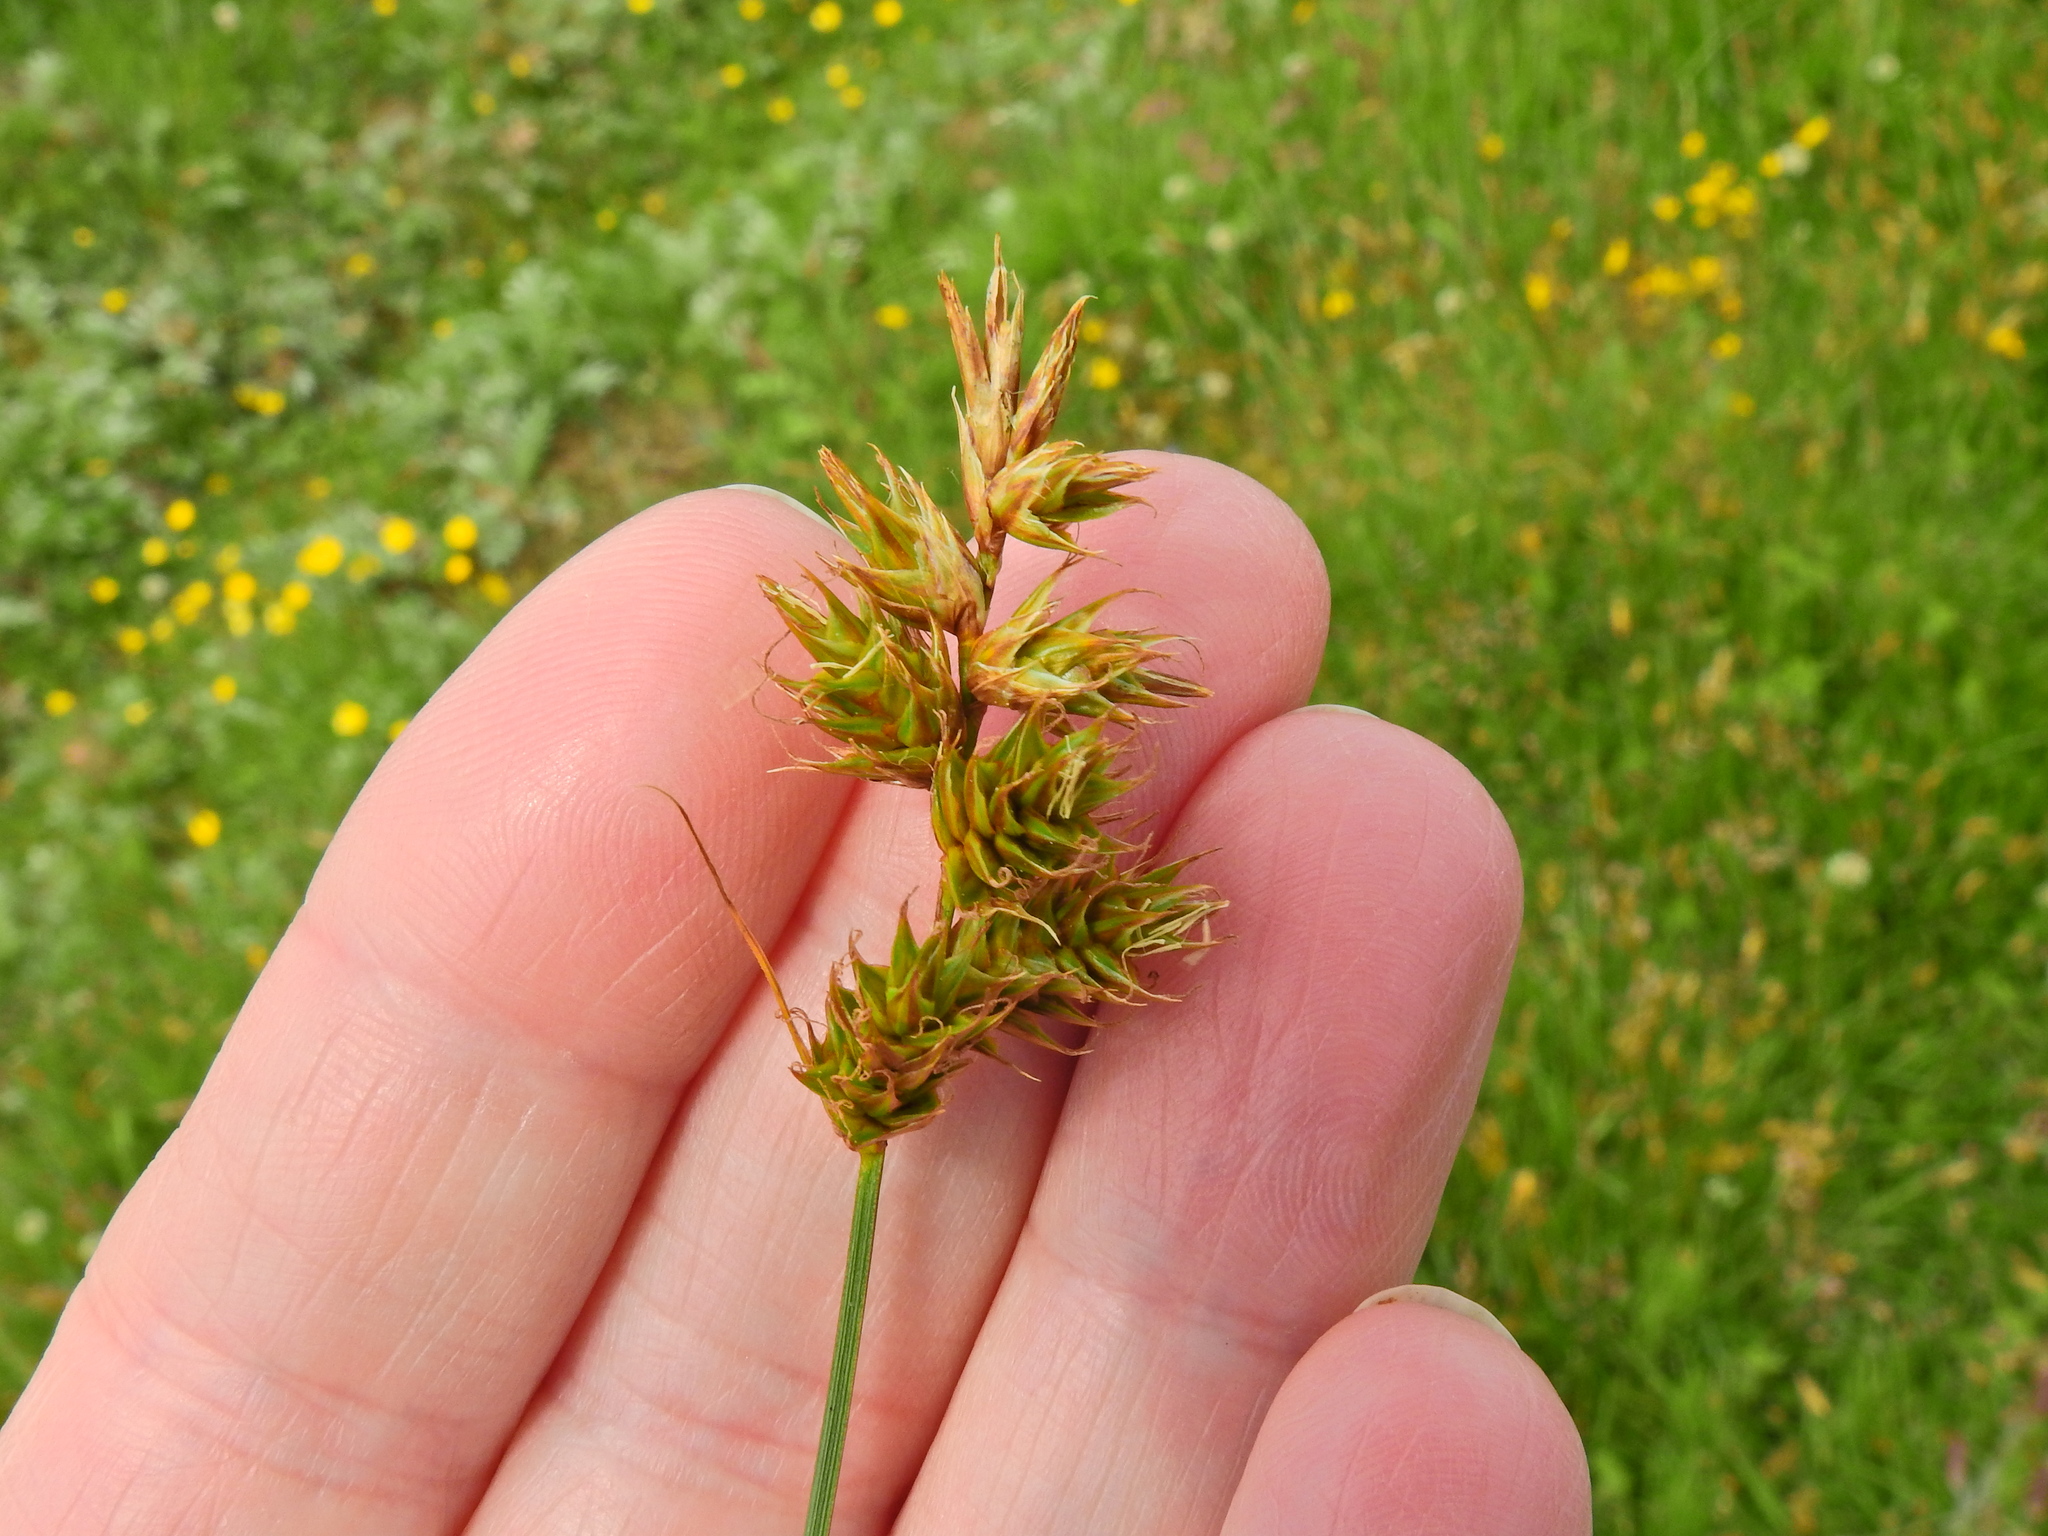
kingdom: Plantae
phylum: Tracheophyta
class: Liliopsida
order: Poales
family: Cyperaceae
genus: Carex
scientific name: Carex arenaria
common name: Sand sedge
